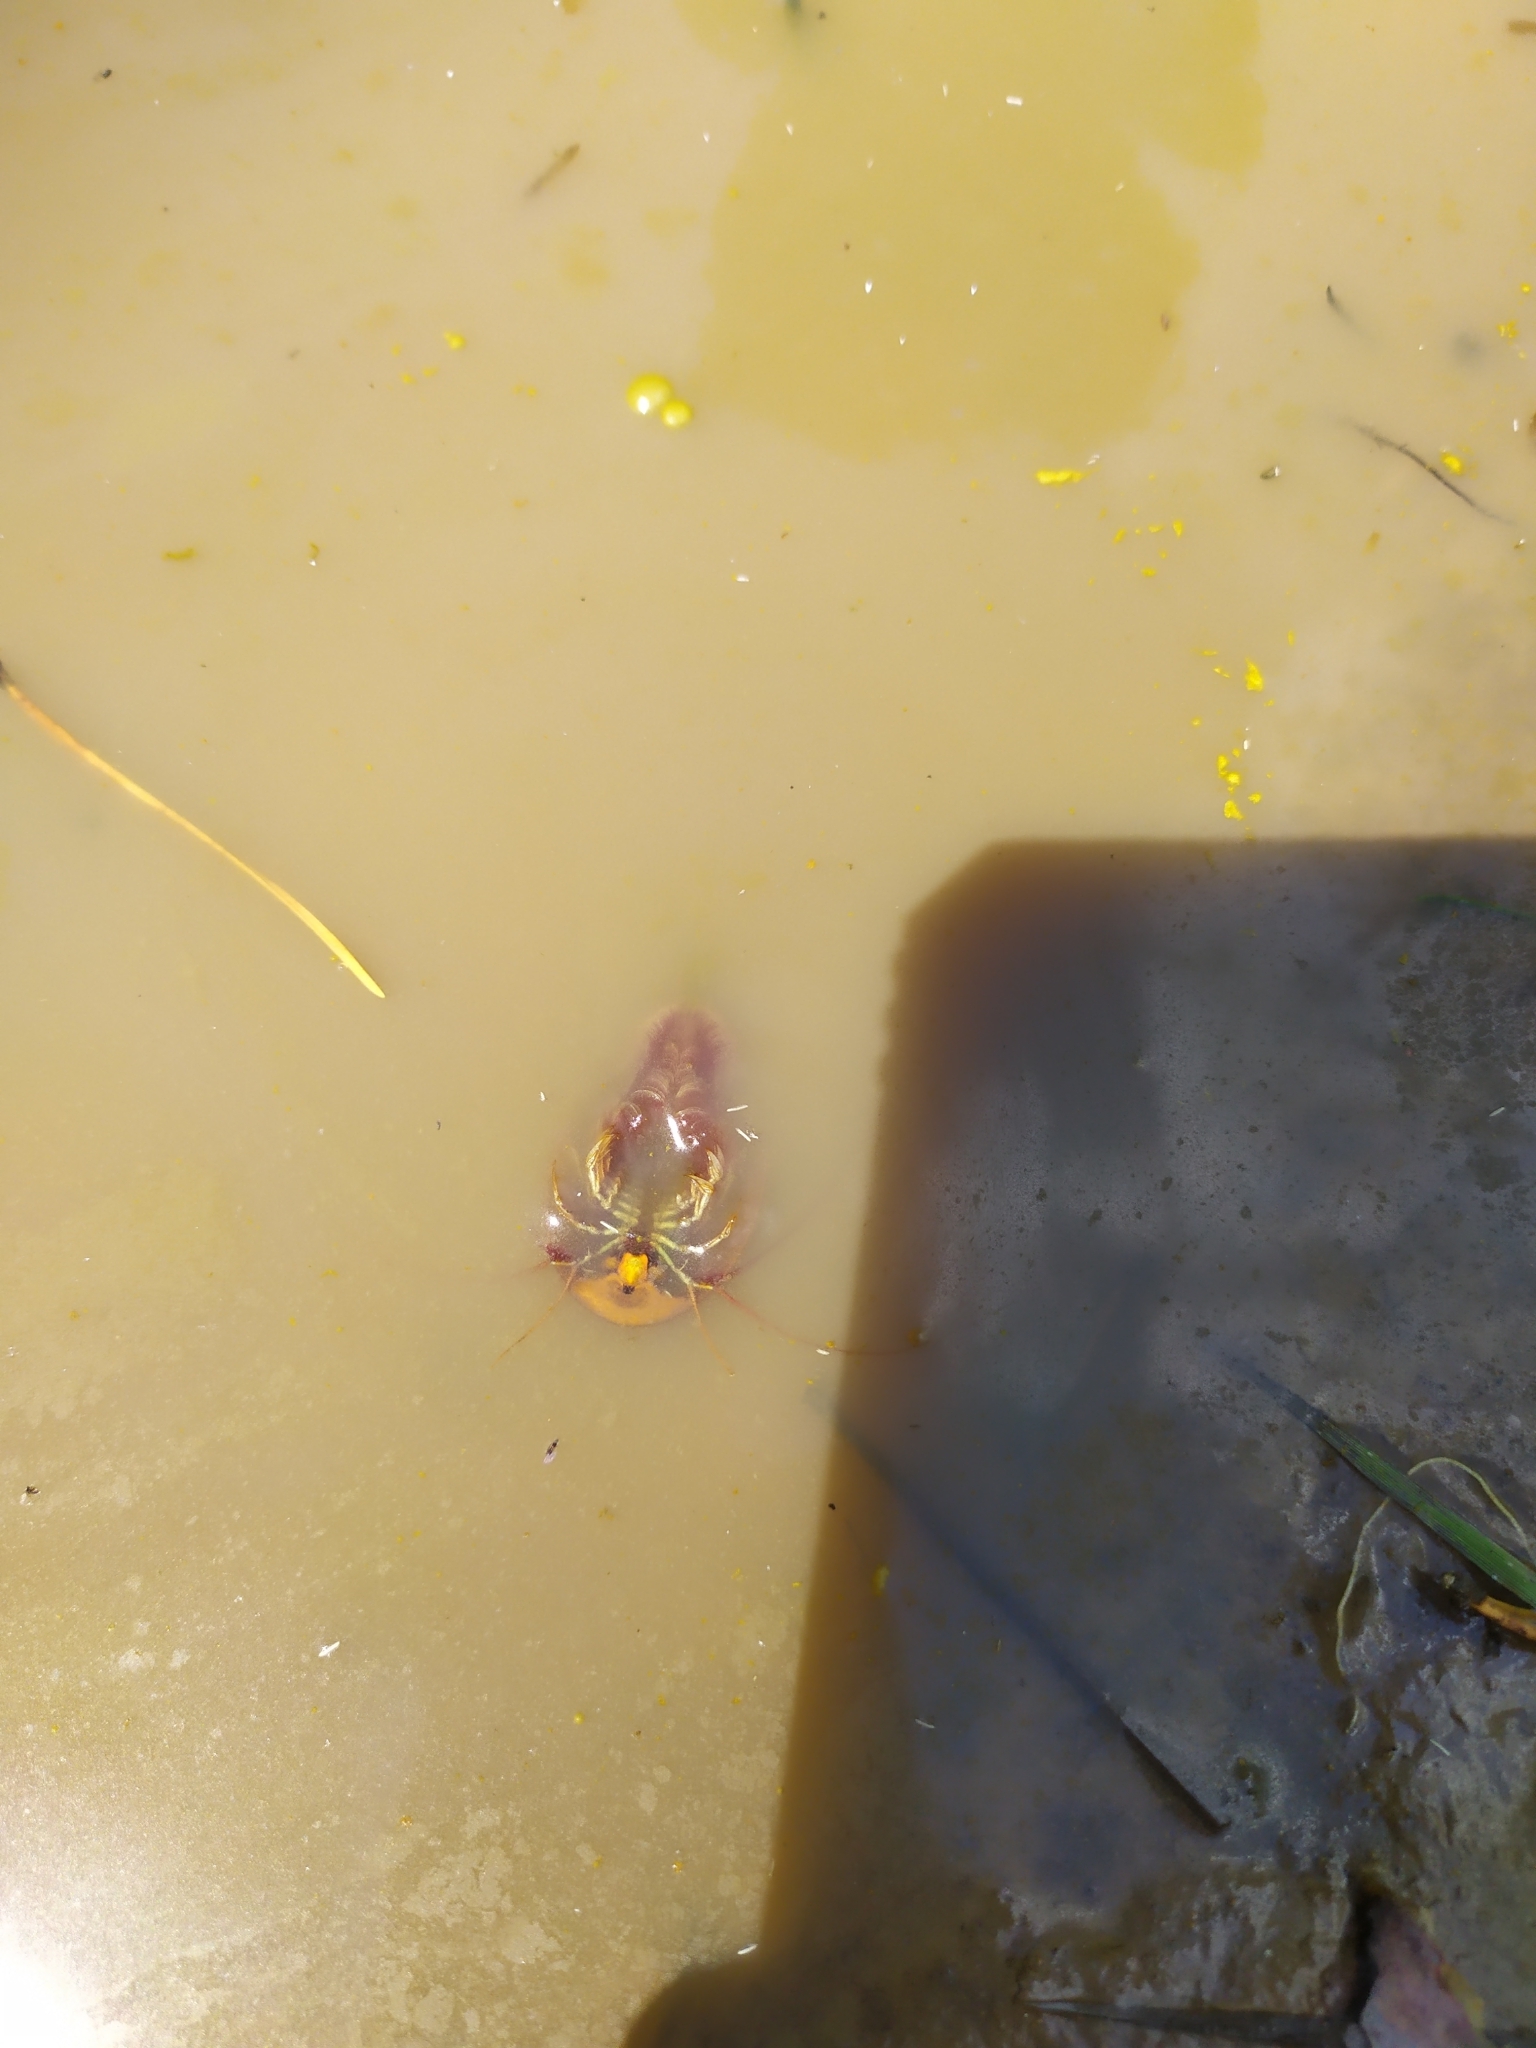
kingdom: Animalia
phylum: Arthropoda
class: Branchiopoda
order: Notostraca
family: Triopsidae
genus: Triops
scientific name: Triops cancriformis
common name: Tadpole shrimp
